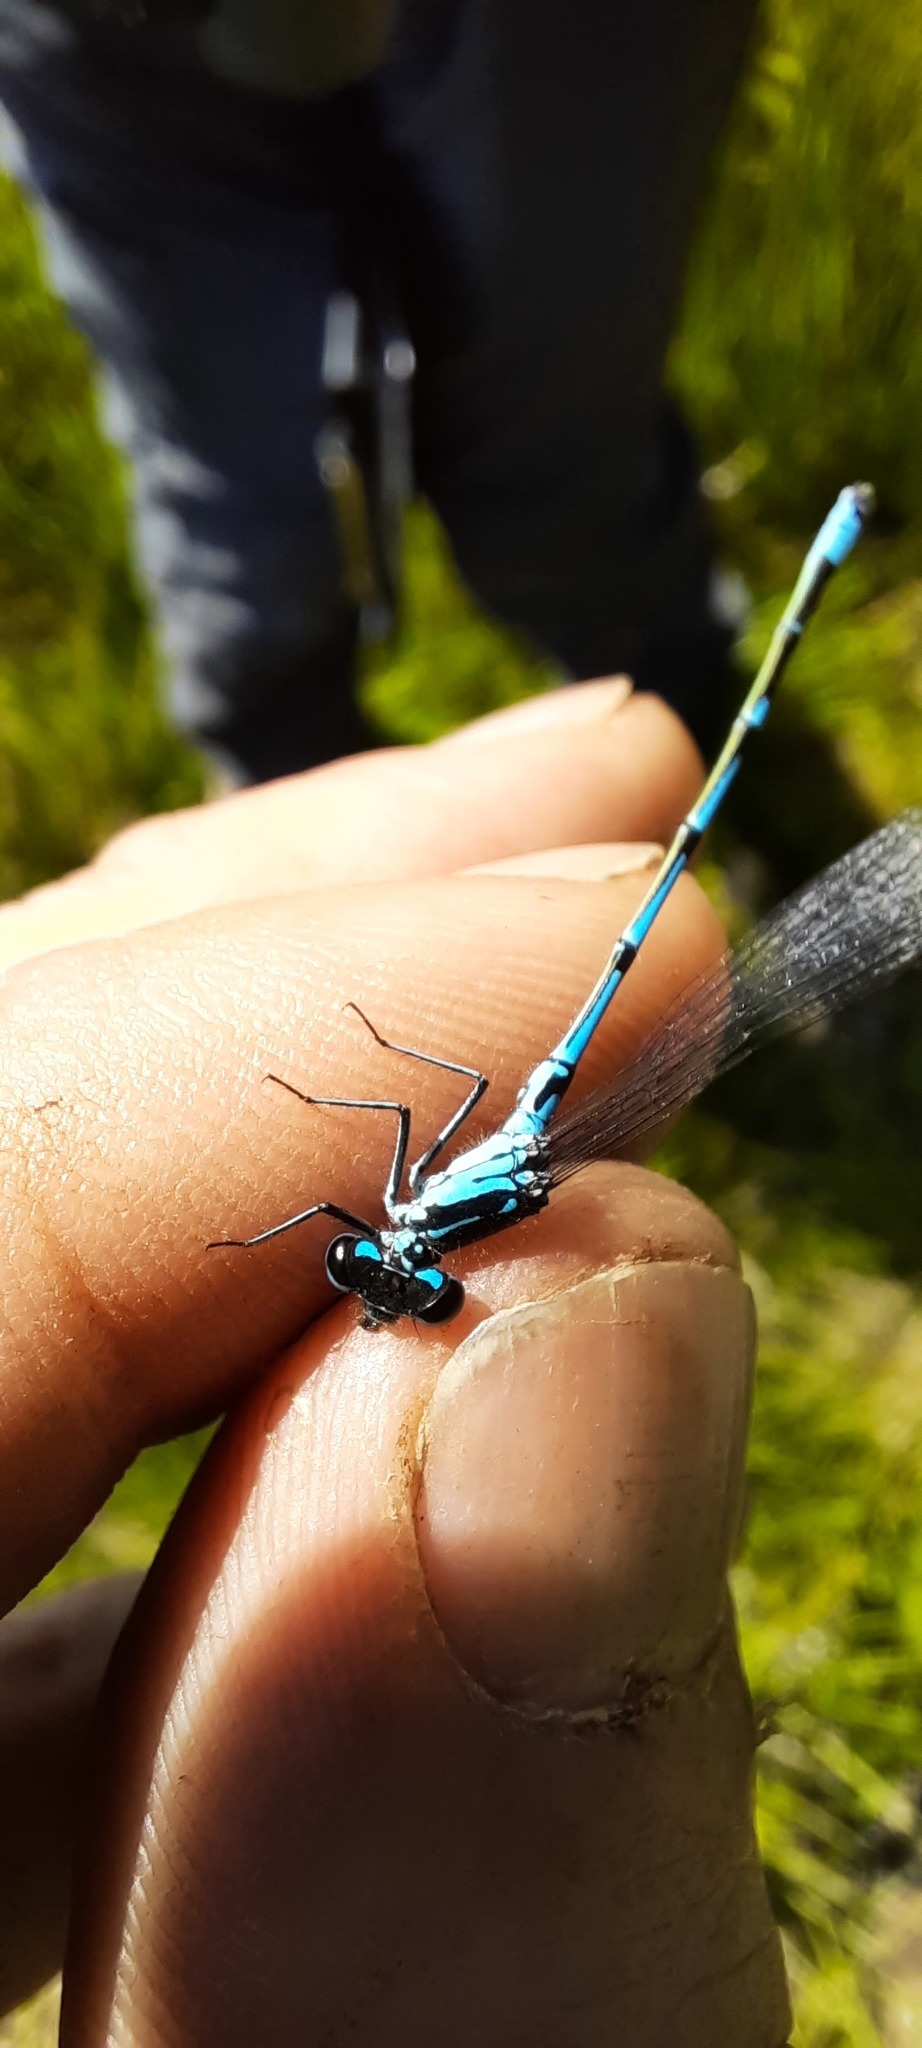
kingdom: Animalia
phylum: Arthropoda
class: Insecta
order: Odonata
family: Coenagrionidae
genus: Coenagrion
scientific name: Coenagrion pulchellum
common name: Variable bluet
